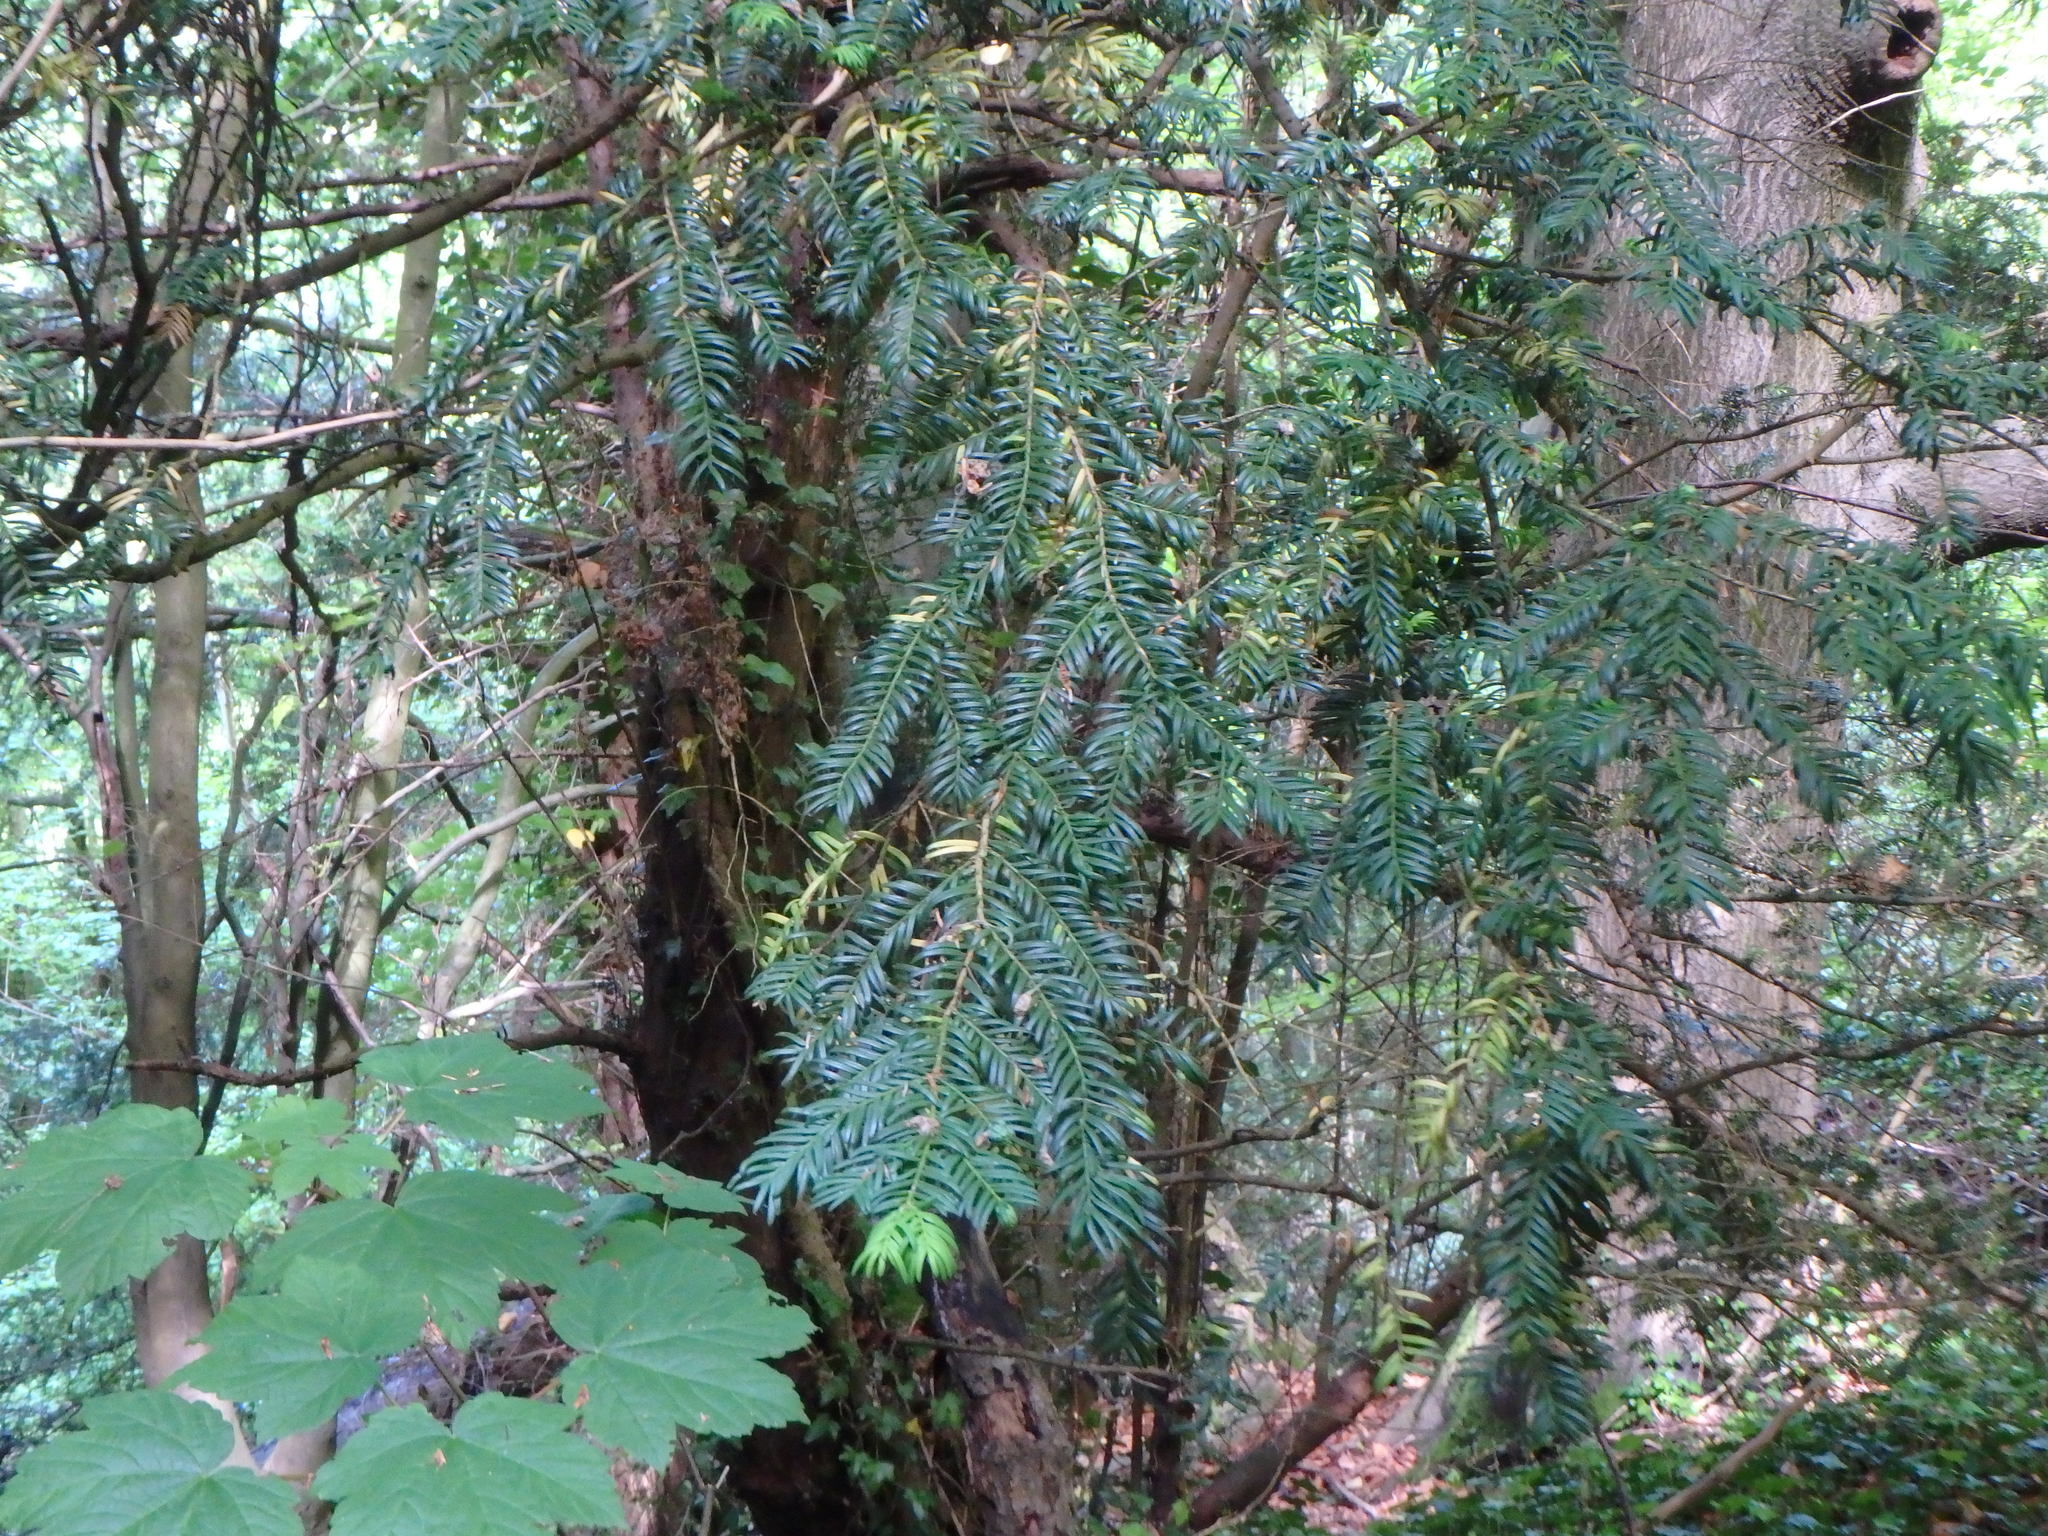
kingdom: Plantae
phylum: Tracheophyta
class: Pinopsida
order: Pinales
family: Taxaceae
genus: Taxus
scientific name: Taxus baccata
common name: Yew
